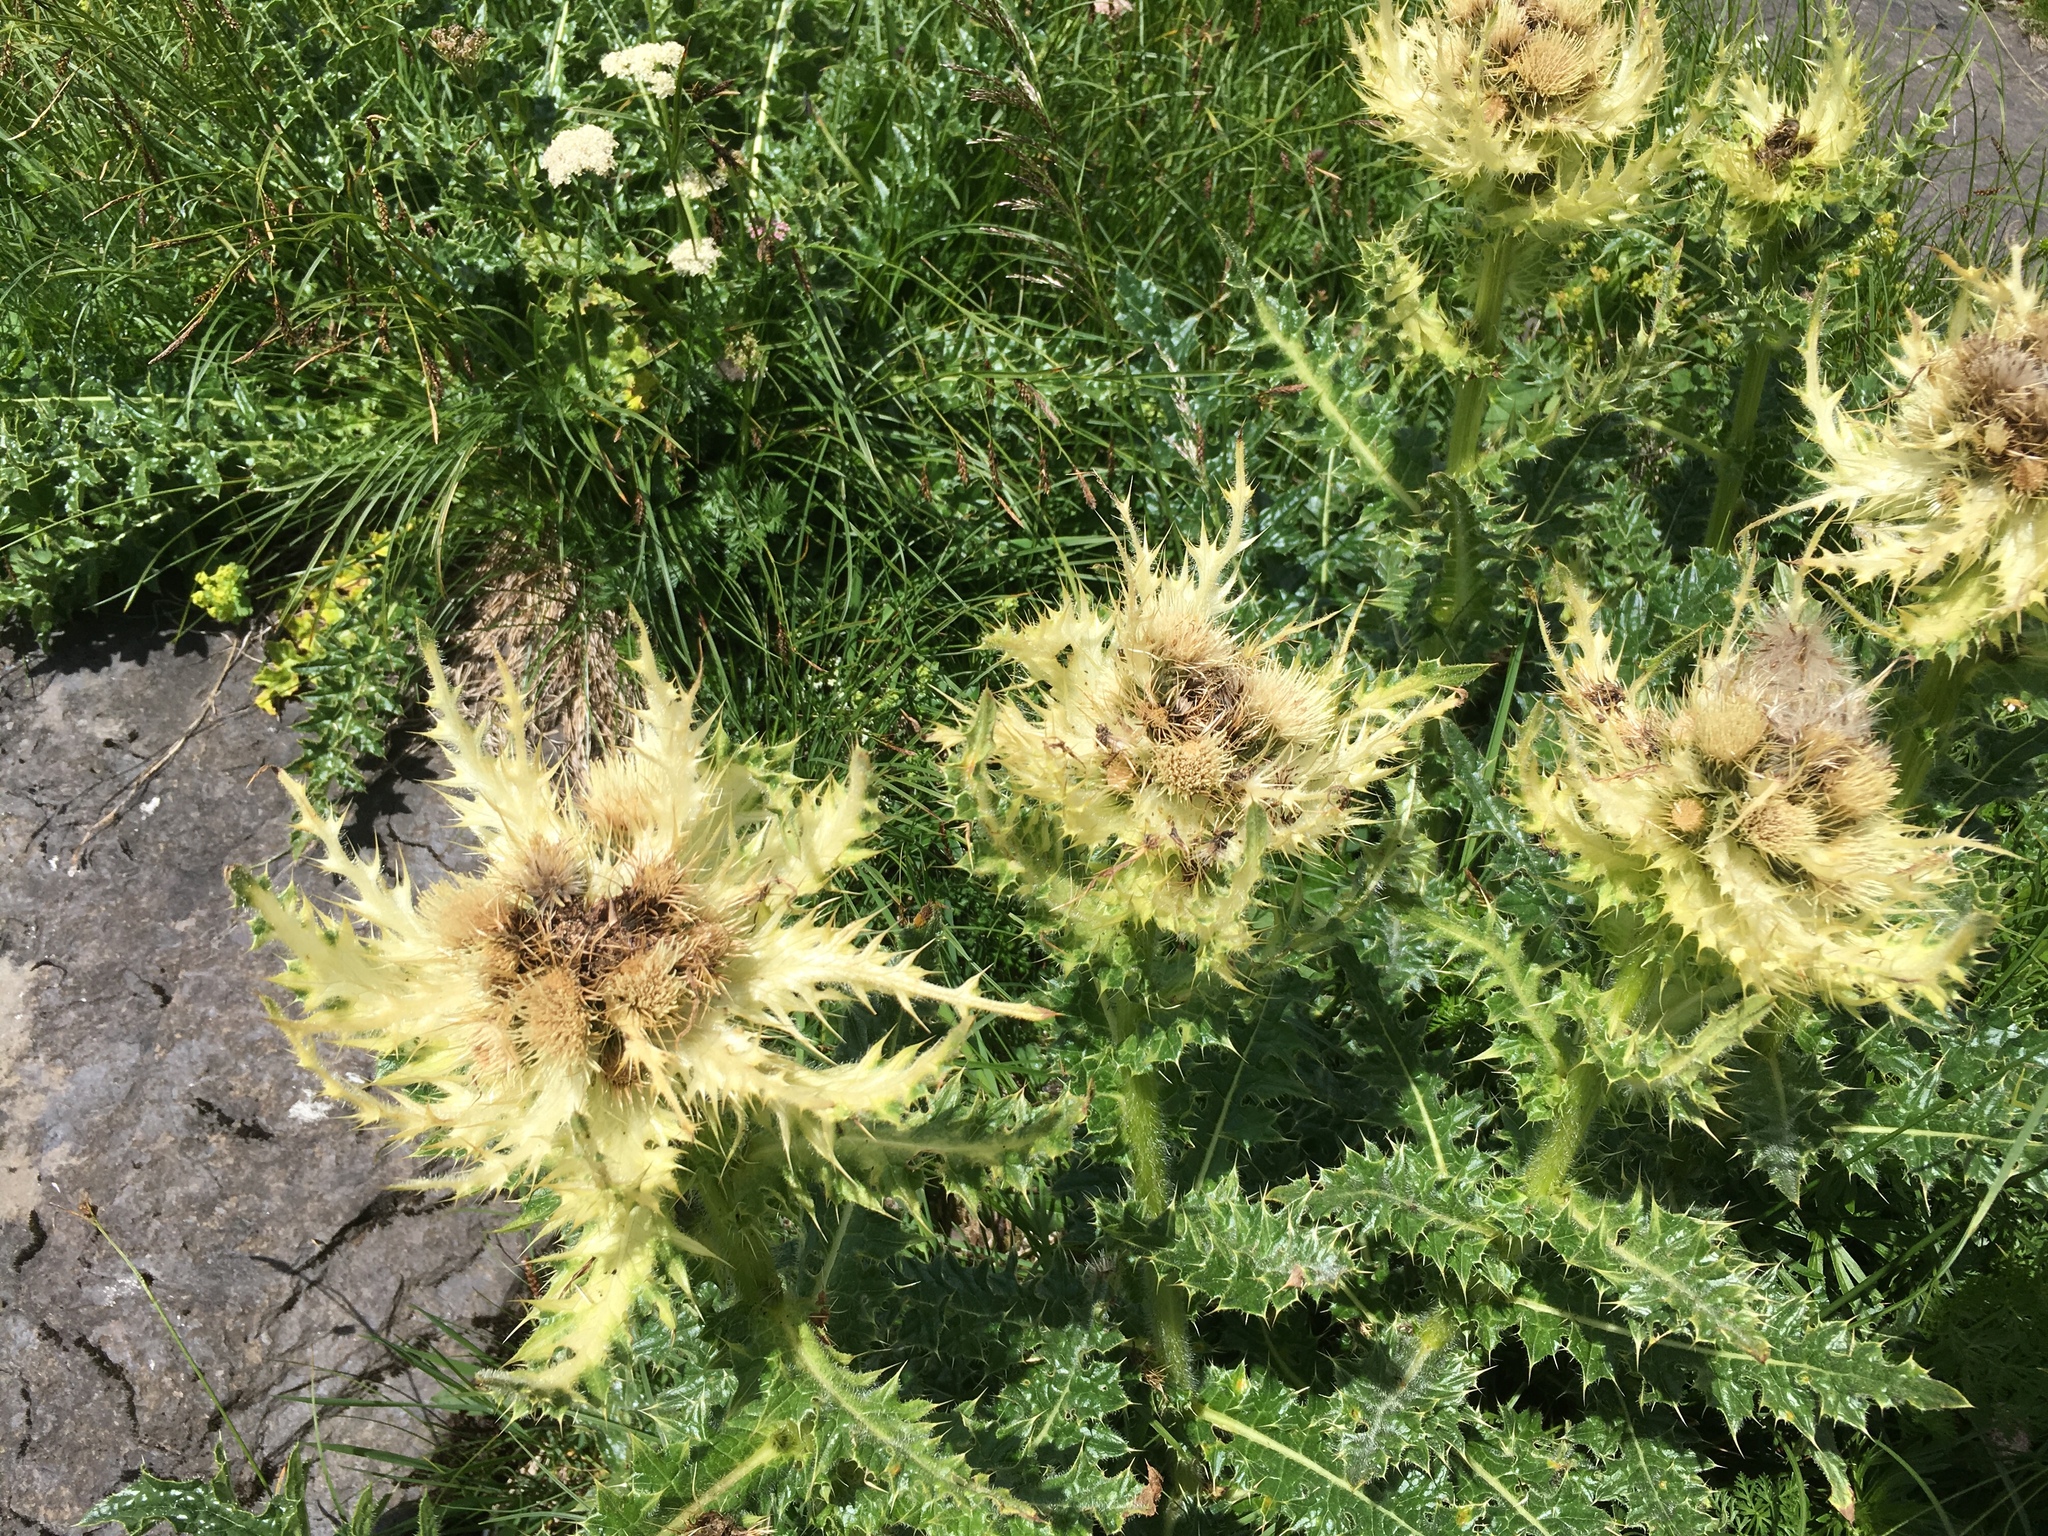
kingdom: Plantae
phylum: Tracheophyta
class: Magnoliopsida
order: Asterales
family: Asteraceae
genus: Cirsium
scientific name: Cirsium spinosissimum
